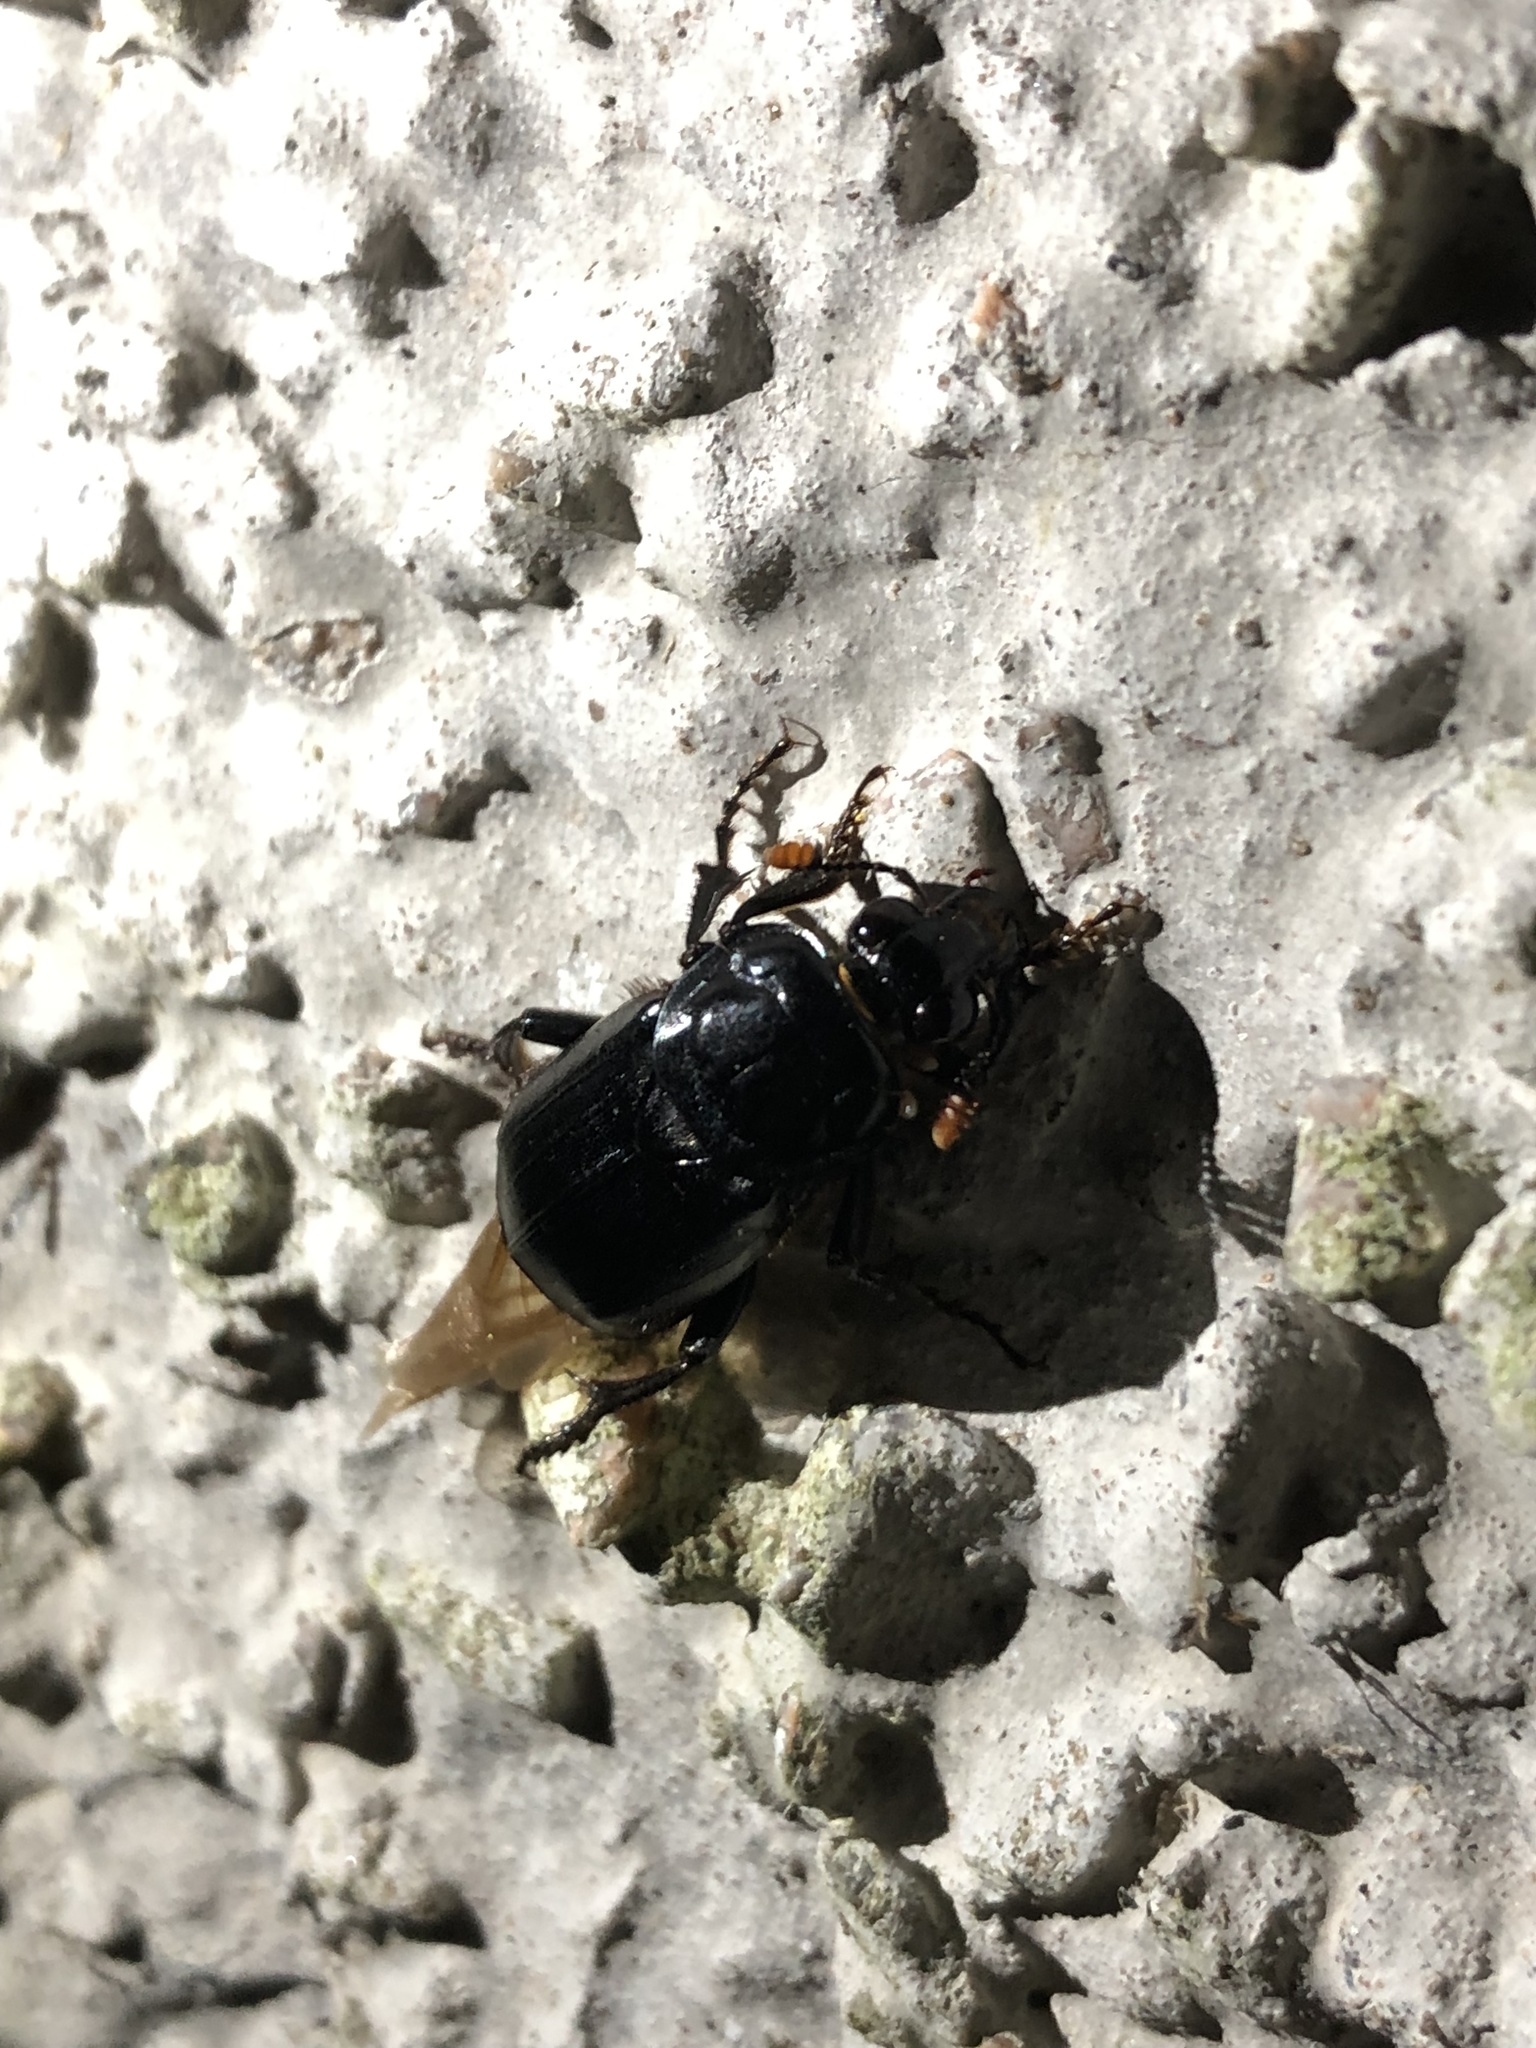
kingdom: Animalia
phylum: Arthropoda
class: Insecta
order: Coleoptera
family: Staphylinidae
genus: Nicrophorus
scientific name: Nicrophorus humator
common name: Black sexton beetle
